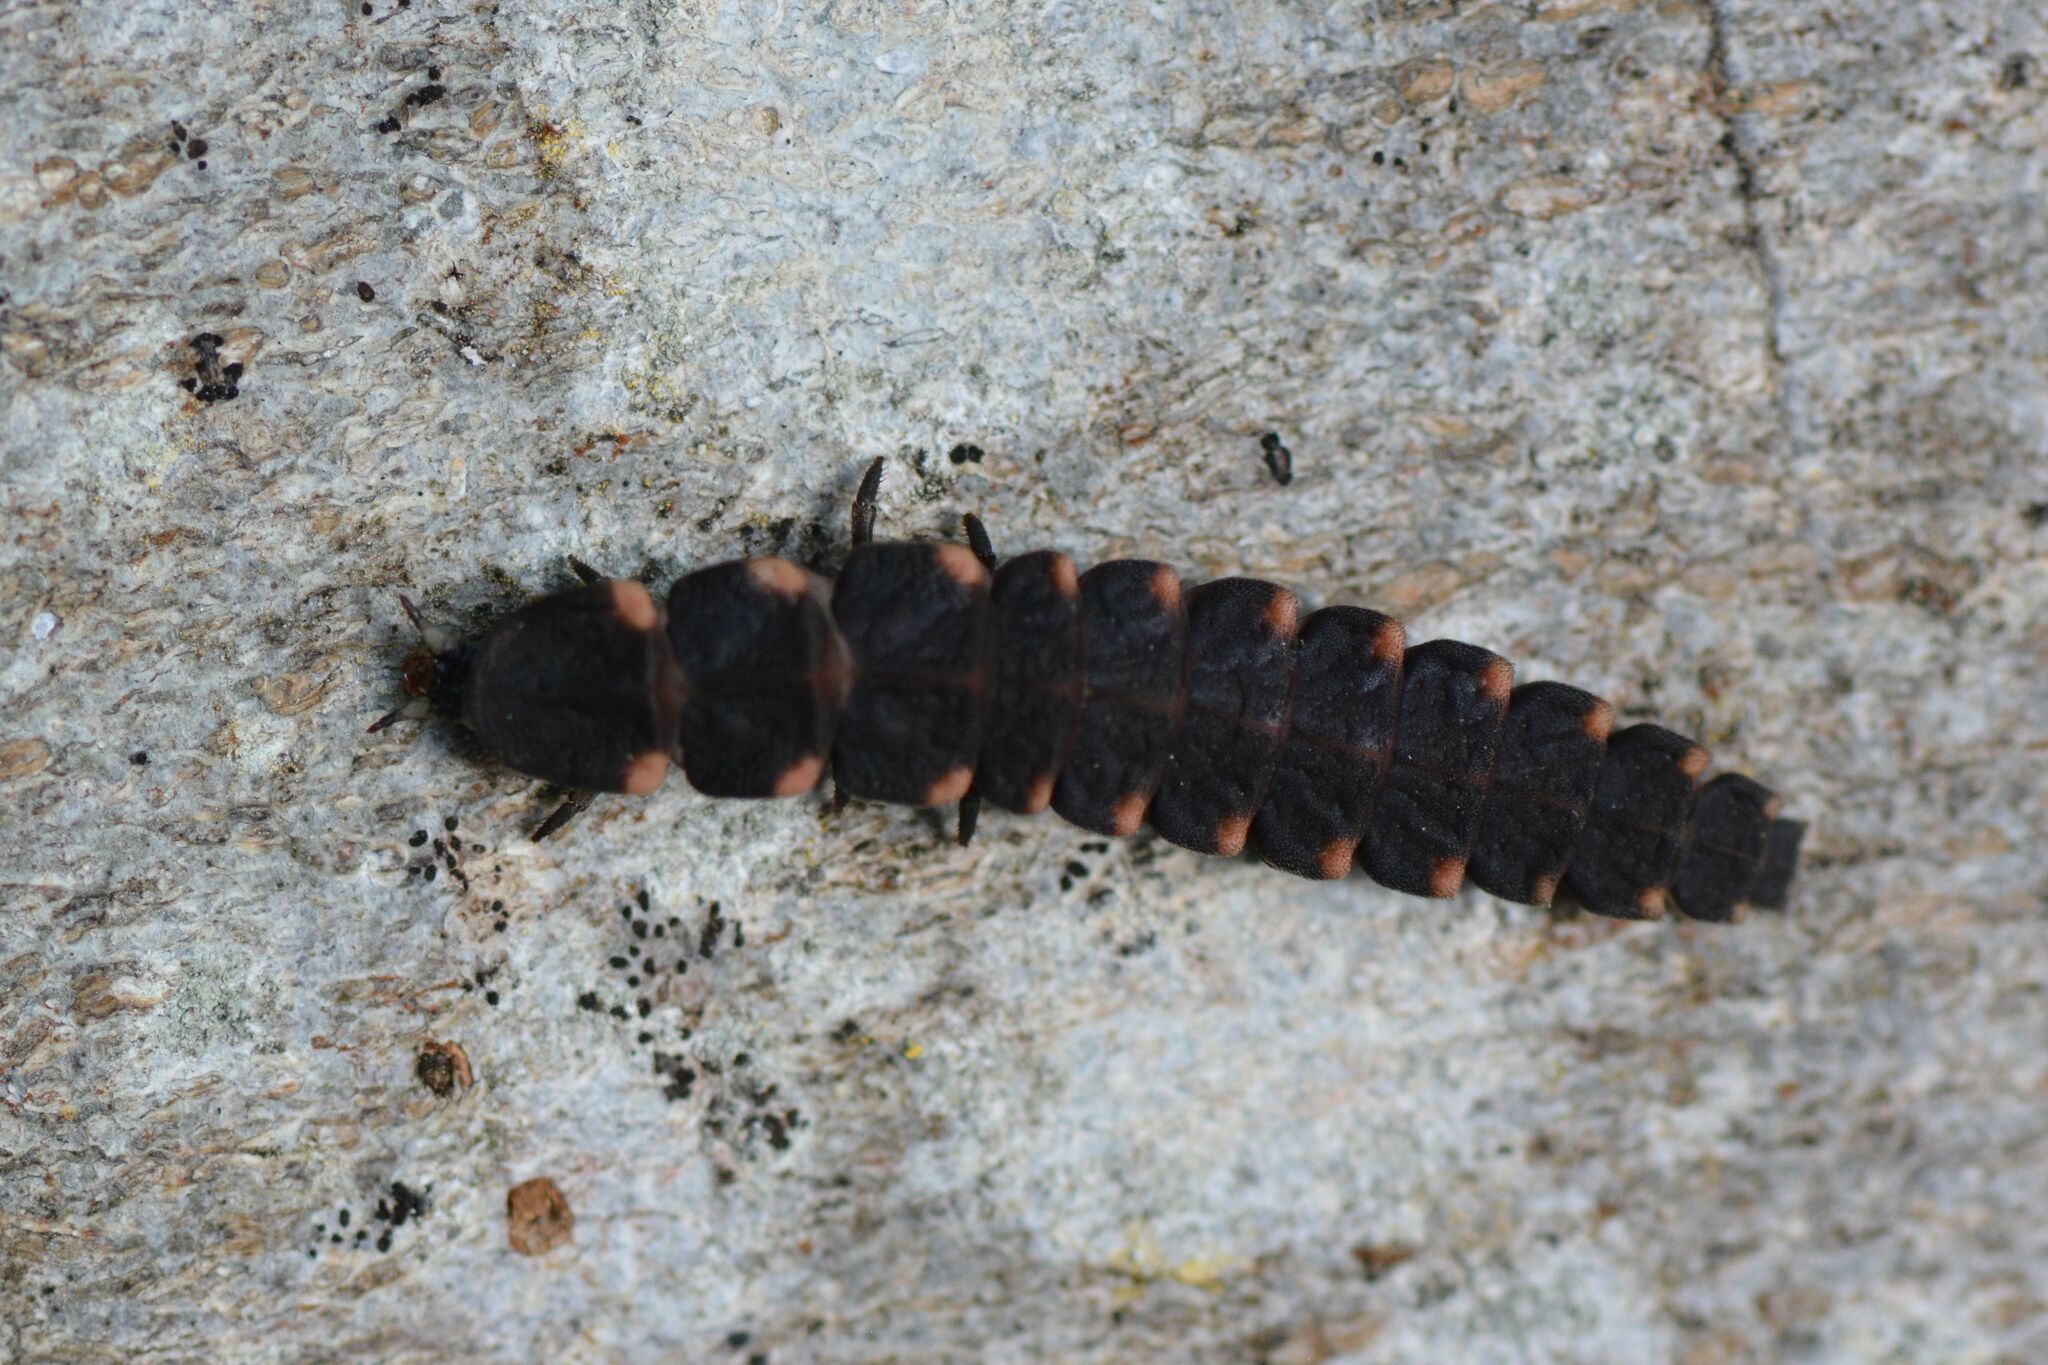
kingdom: Animalia
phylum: Arthropoda
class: Insecta
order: Coleoptera
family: Lampyridae
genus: Lampyris
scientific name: Lampyris noctiluca
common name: Glow-worm
